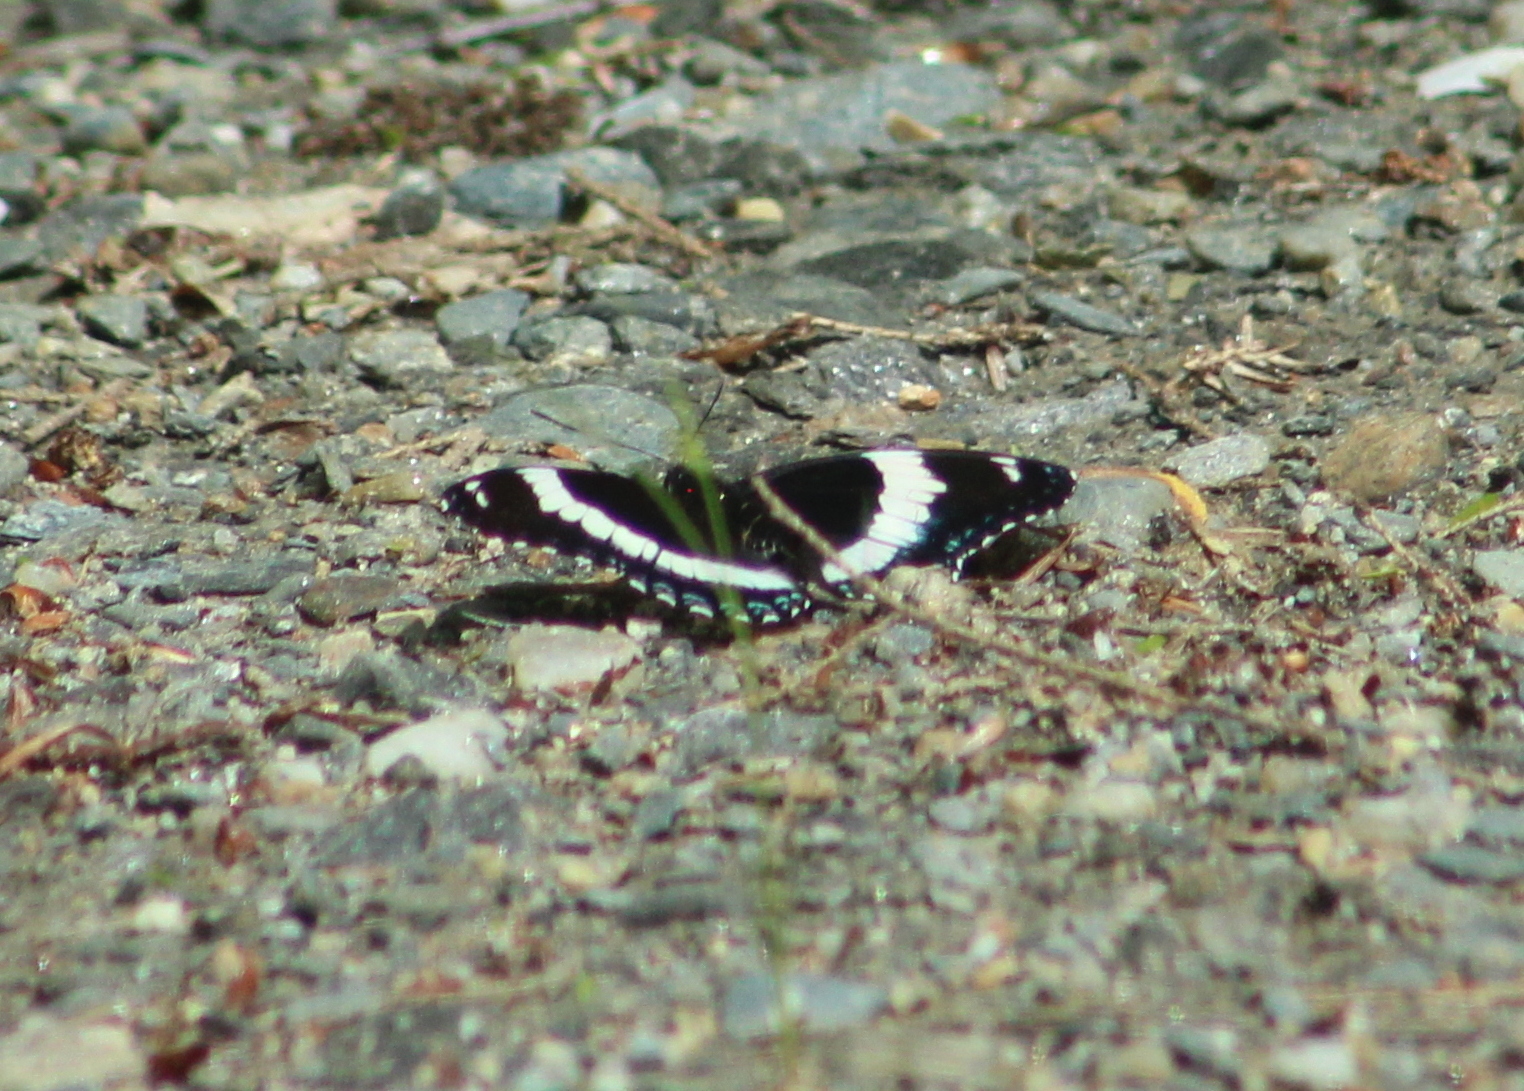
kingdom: Animalia
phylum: Arthropoda
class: Insecta
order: Lepidoptera
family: Nymphalidae
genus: Limenitis
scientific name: Limenitis arthemis
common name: Red-spotted admiral
